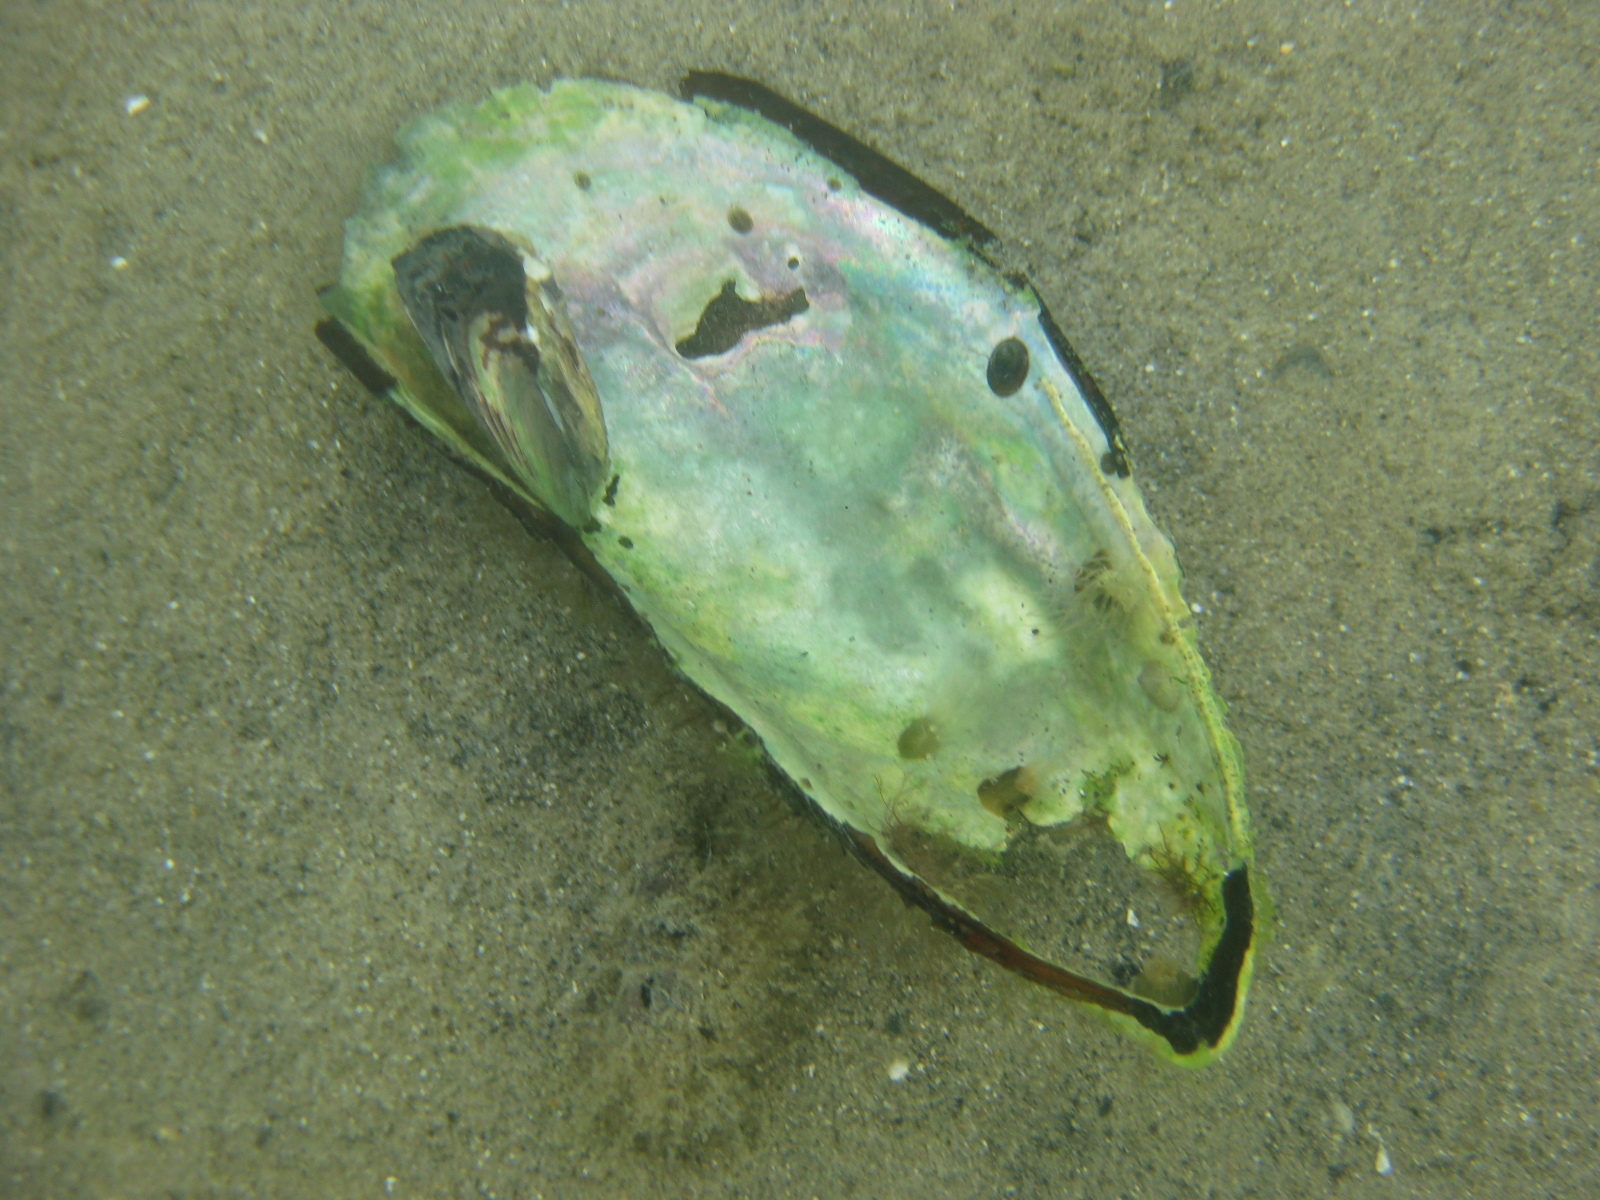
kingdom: Animalia
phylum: Mollusca
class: Bivalvia
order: Mytilida
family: Mytilidae
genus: Perna
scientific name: Perna canaliculus
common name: New zealand greenshelltm
